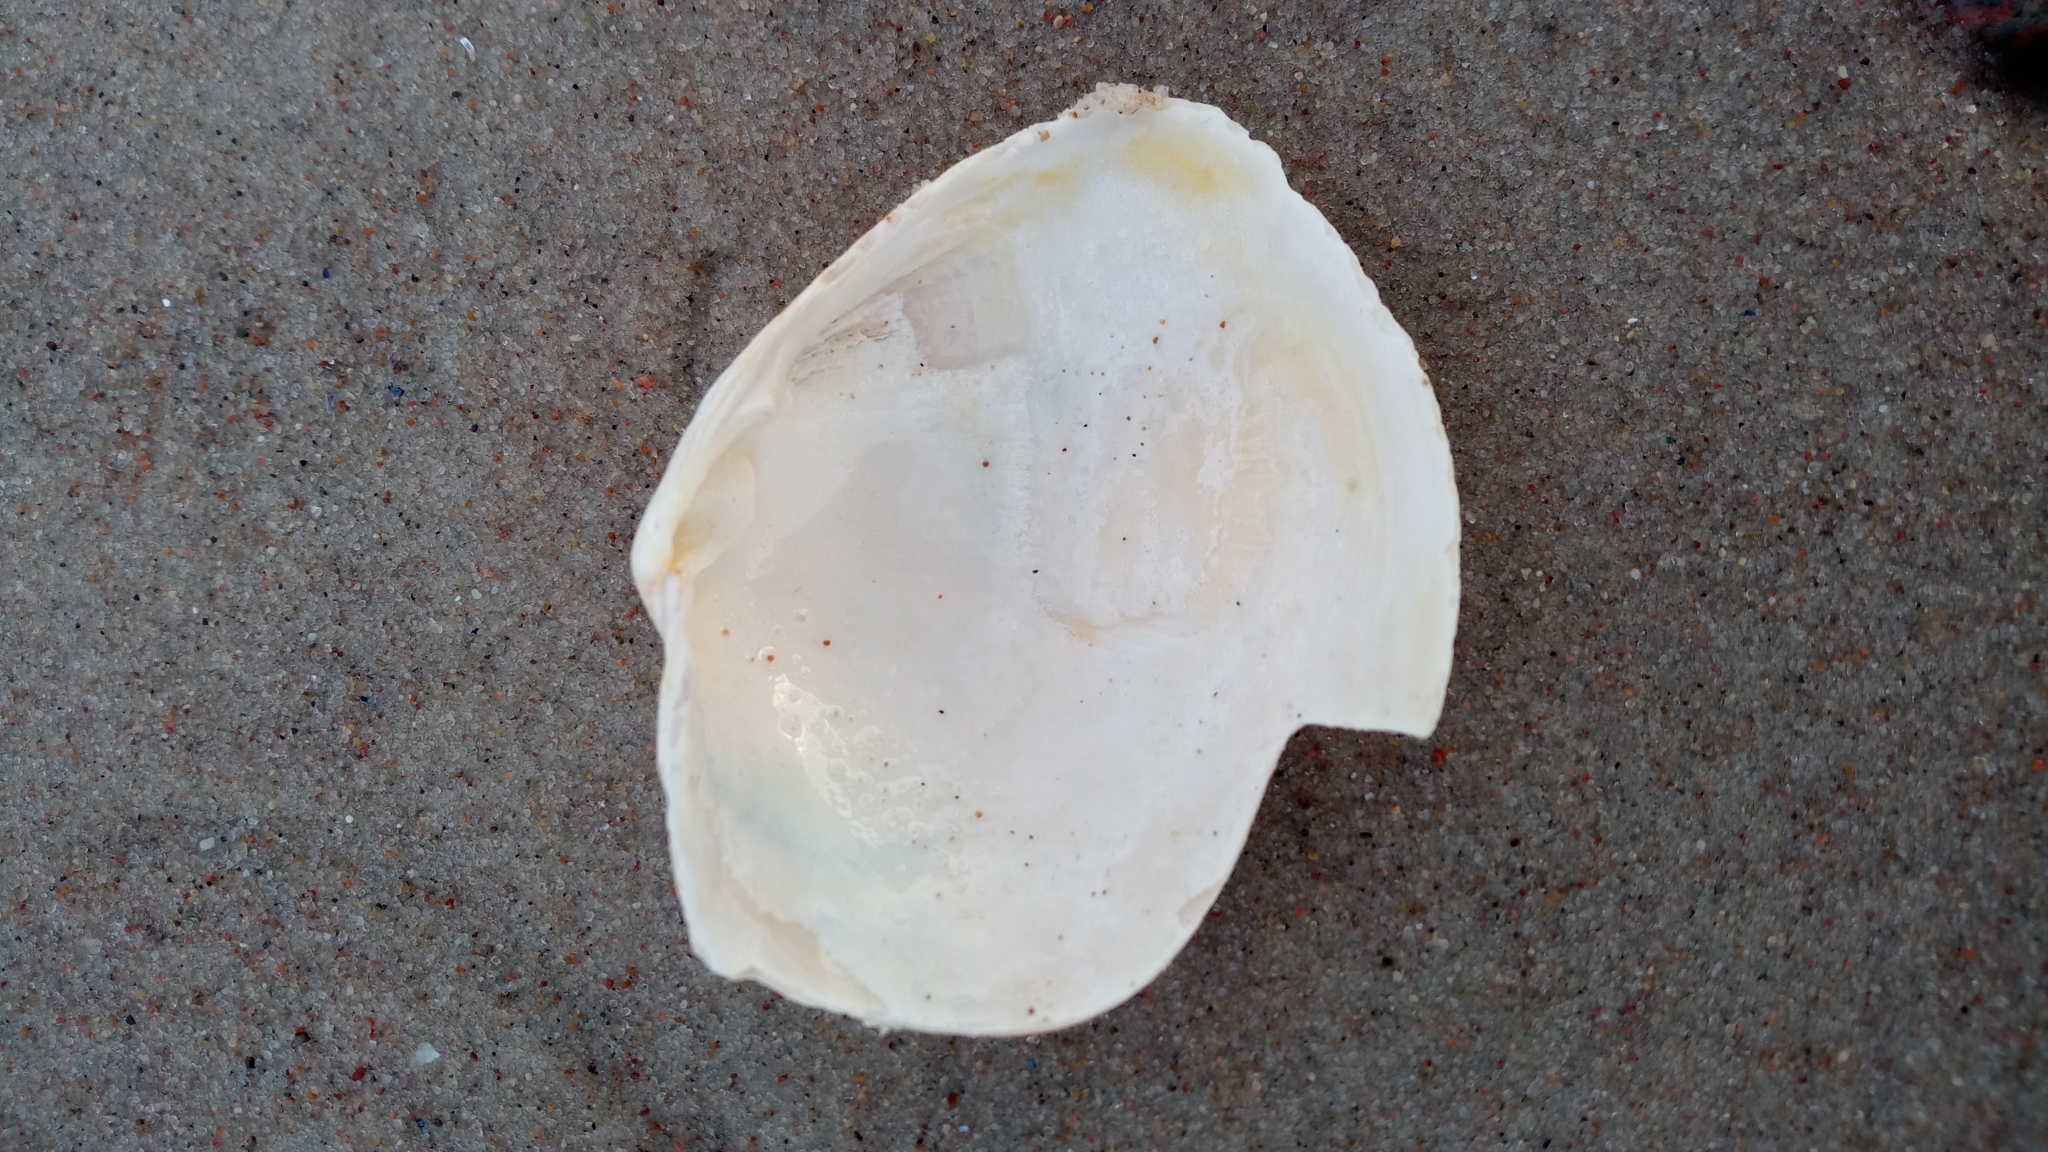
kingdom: Animalia
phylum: Mollusca
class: Bivalvia
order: Myida
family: Myidae
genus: Mya
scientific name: Mya arenaria
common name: Soft-shelled clam
